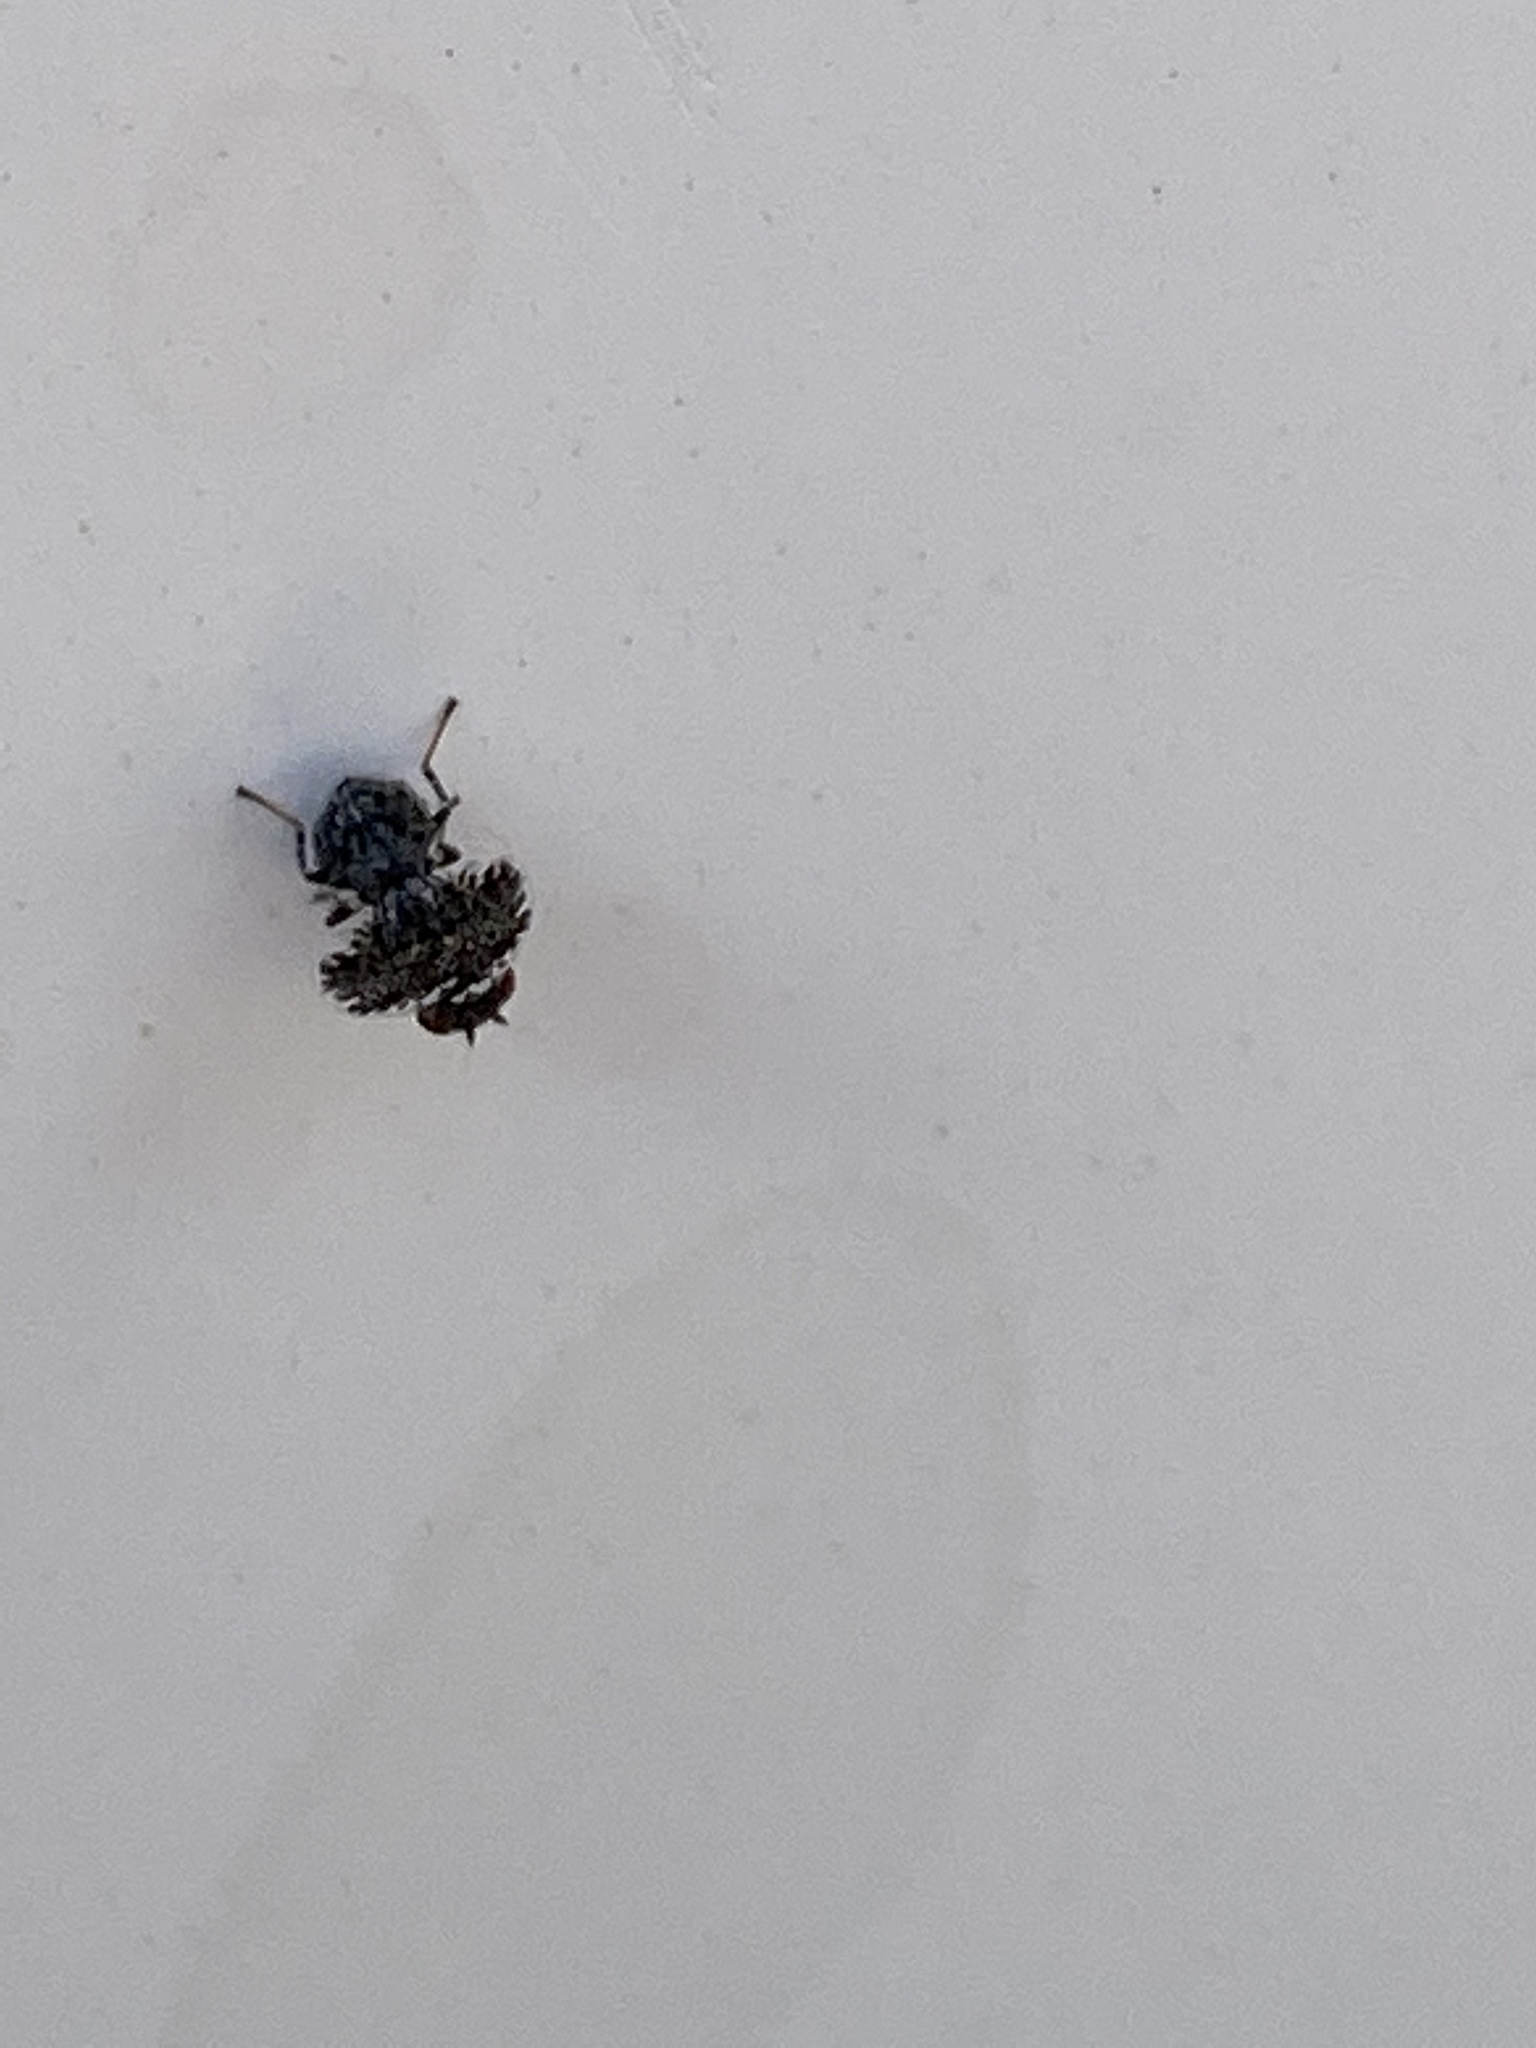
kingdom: Animalia
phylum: Arthropoda
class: Insecta
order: Diptera
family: Ulidiidae
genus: Callopistromyia
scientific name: Callopistromyia annulipes
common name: Peacock fly
